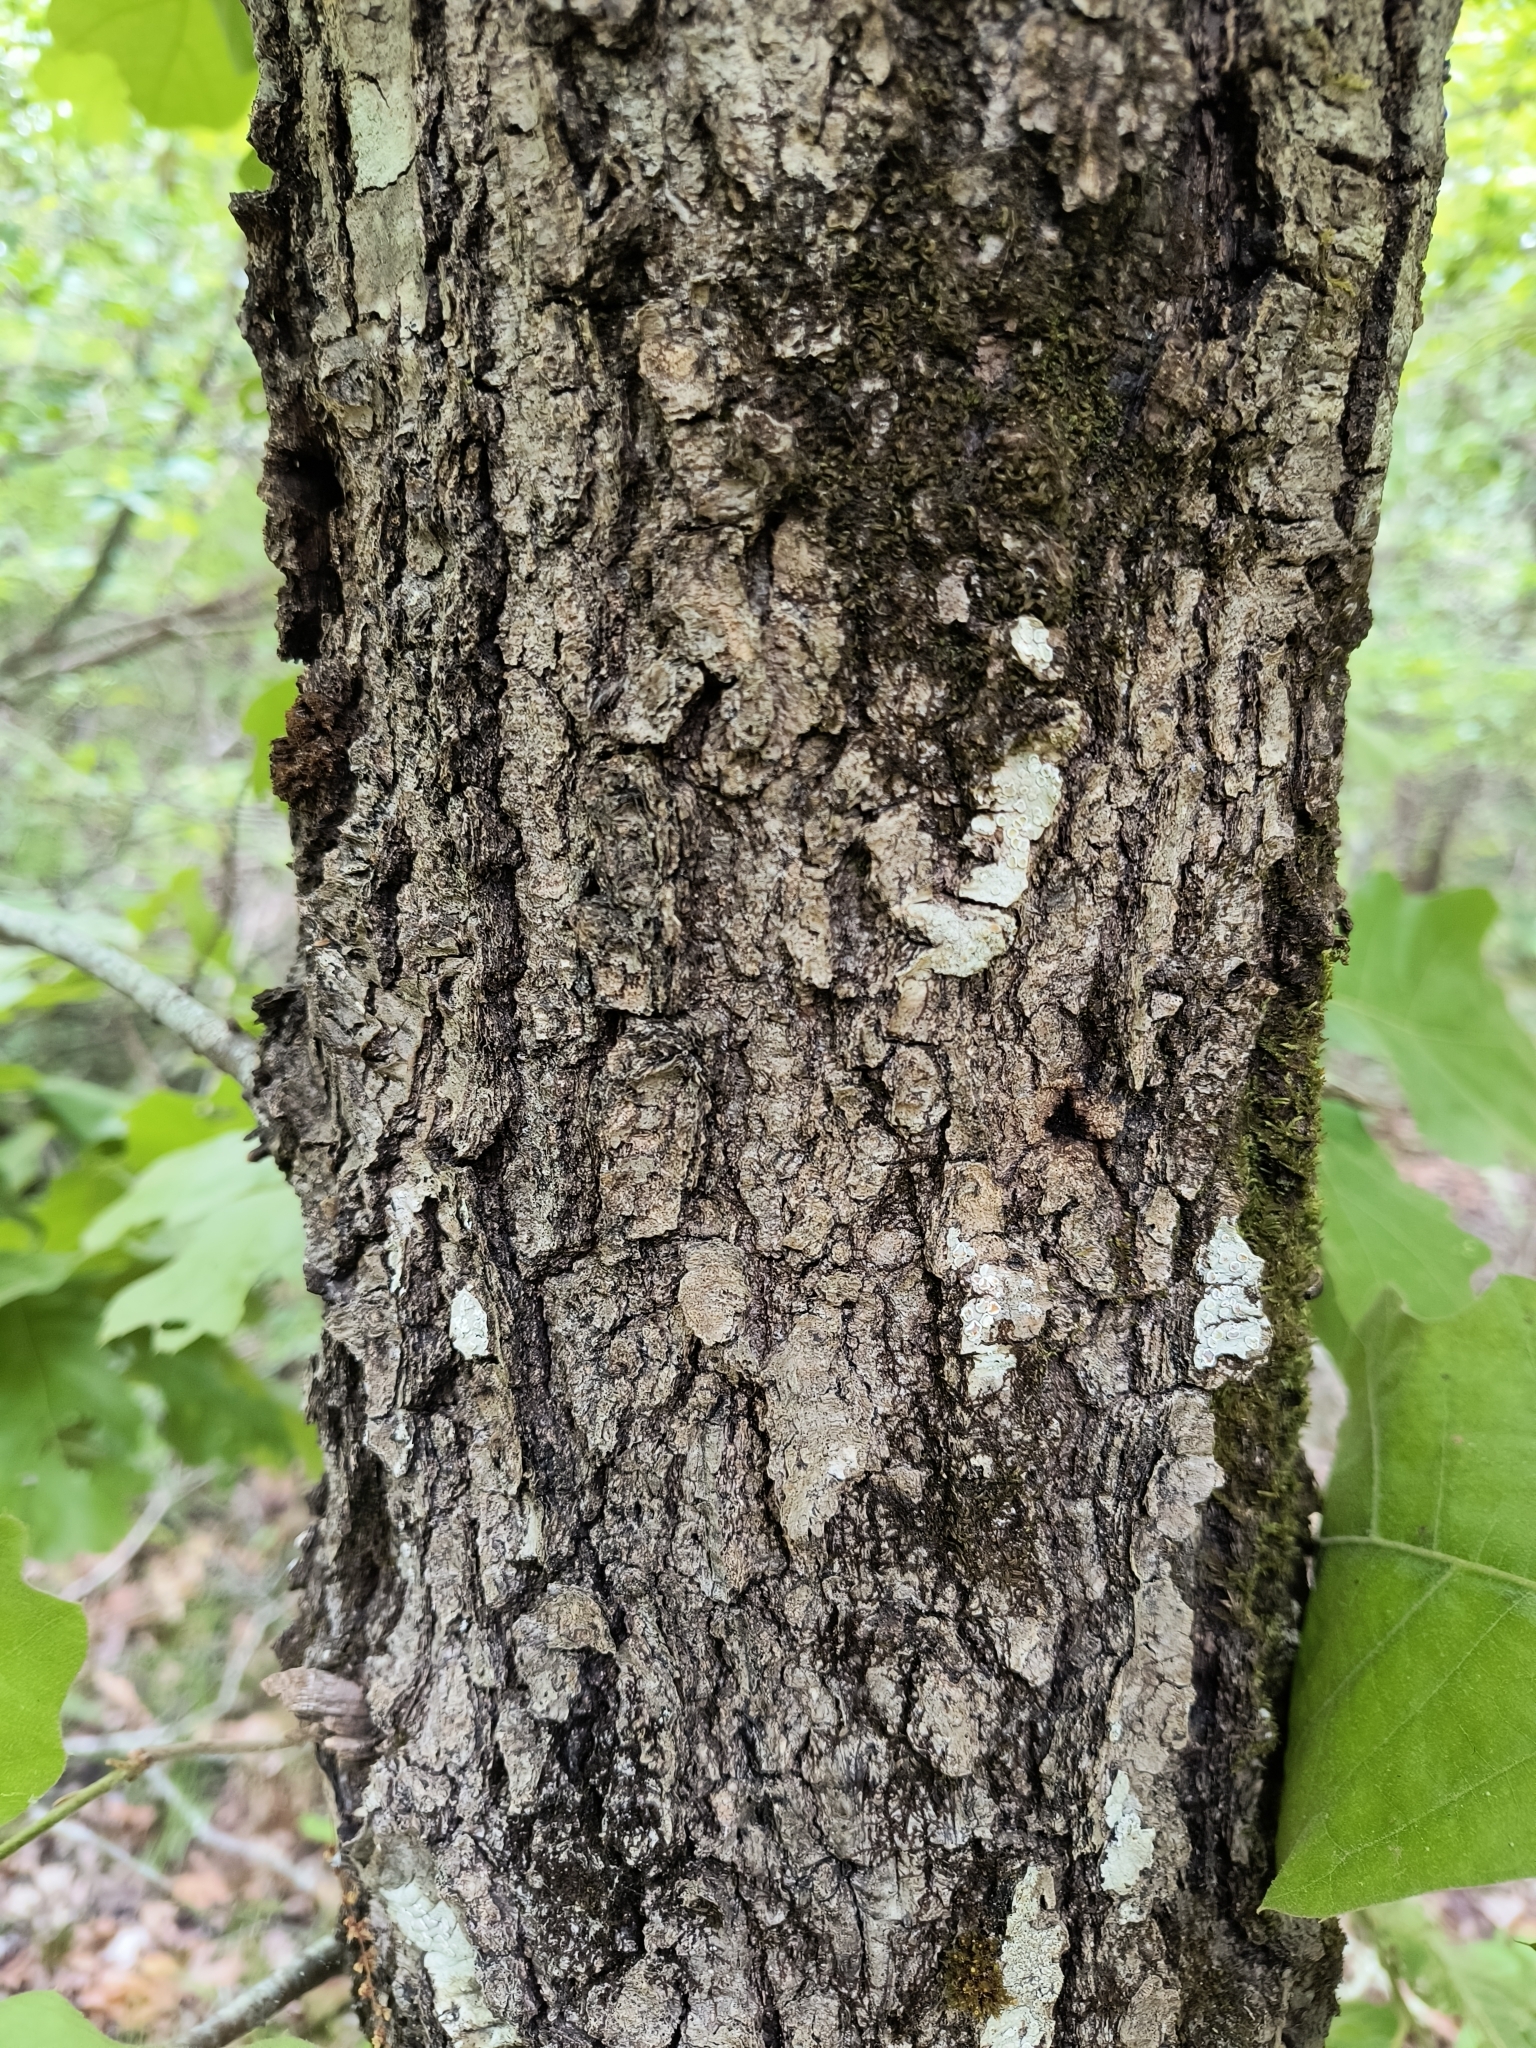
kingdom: Plantae
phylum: Tracheophyta
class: Magnoliopsida
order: Fagales
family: Fagaceae
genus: Quercus
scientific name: Quercus velutina
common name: Black oak
